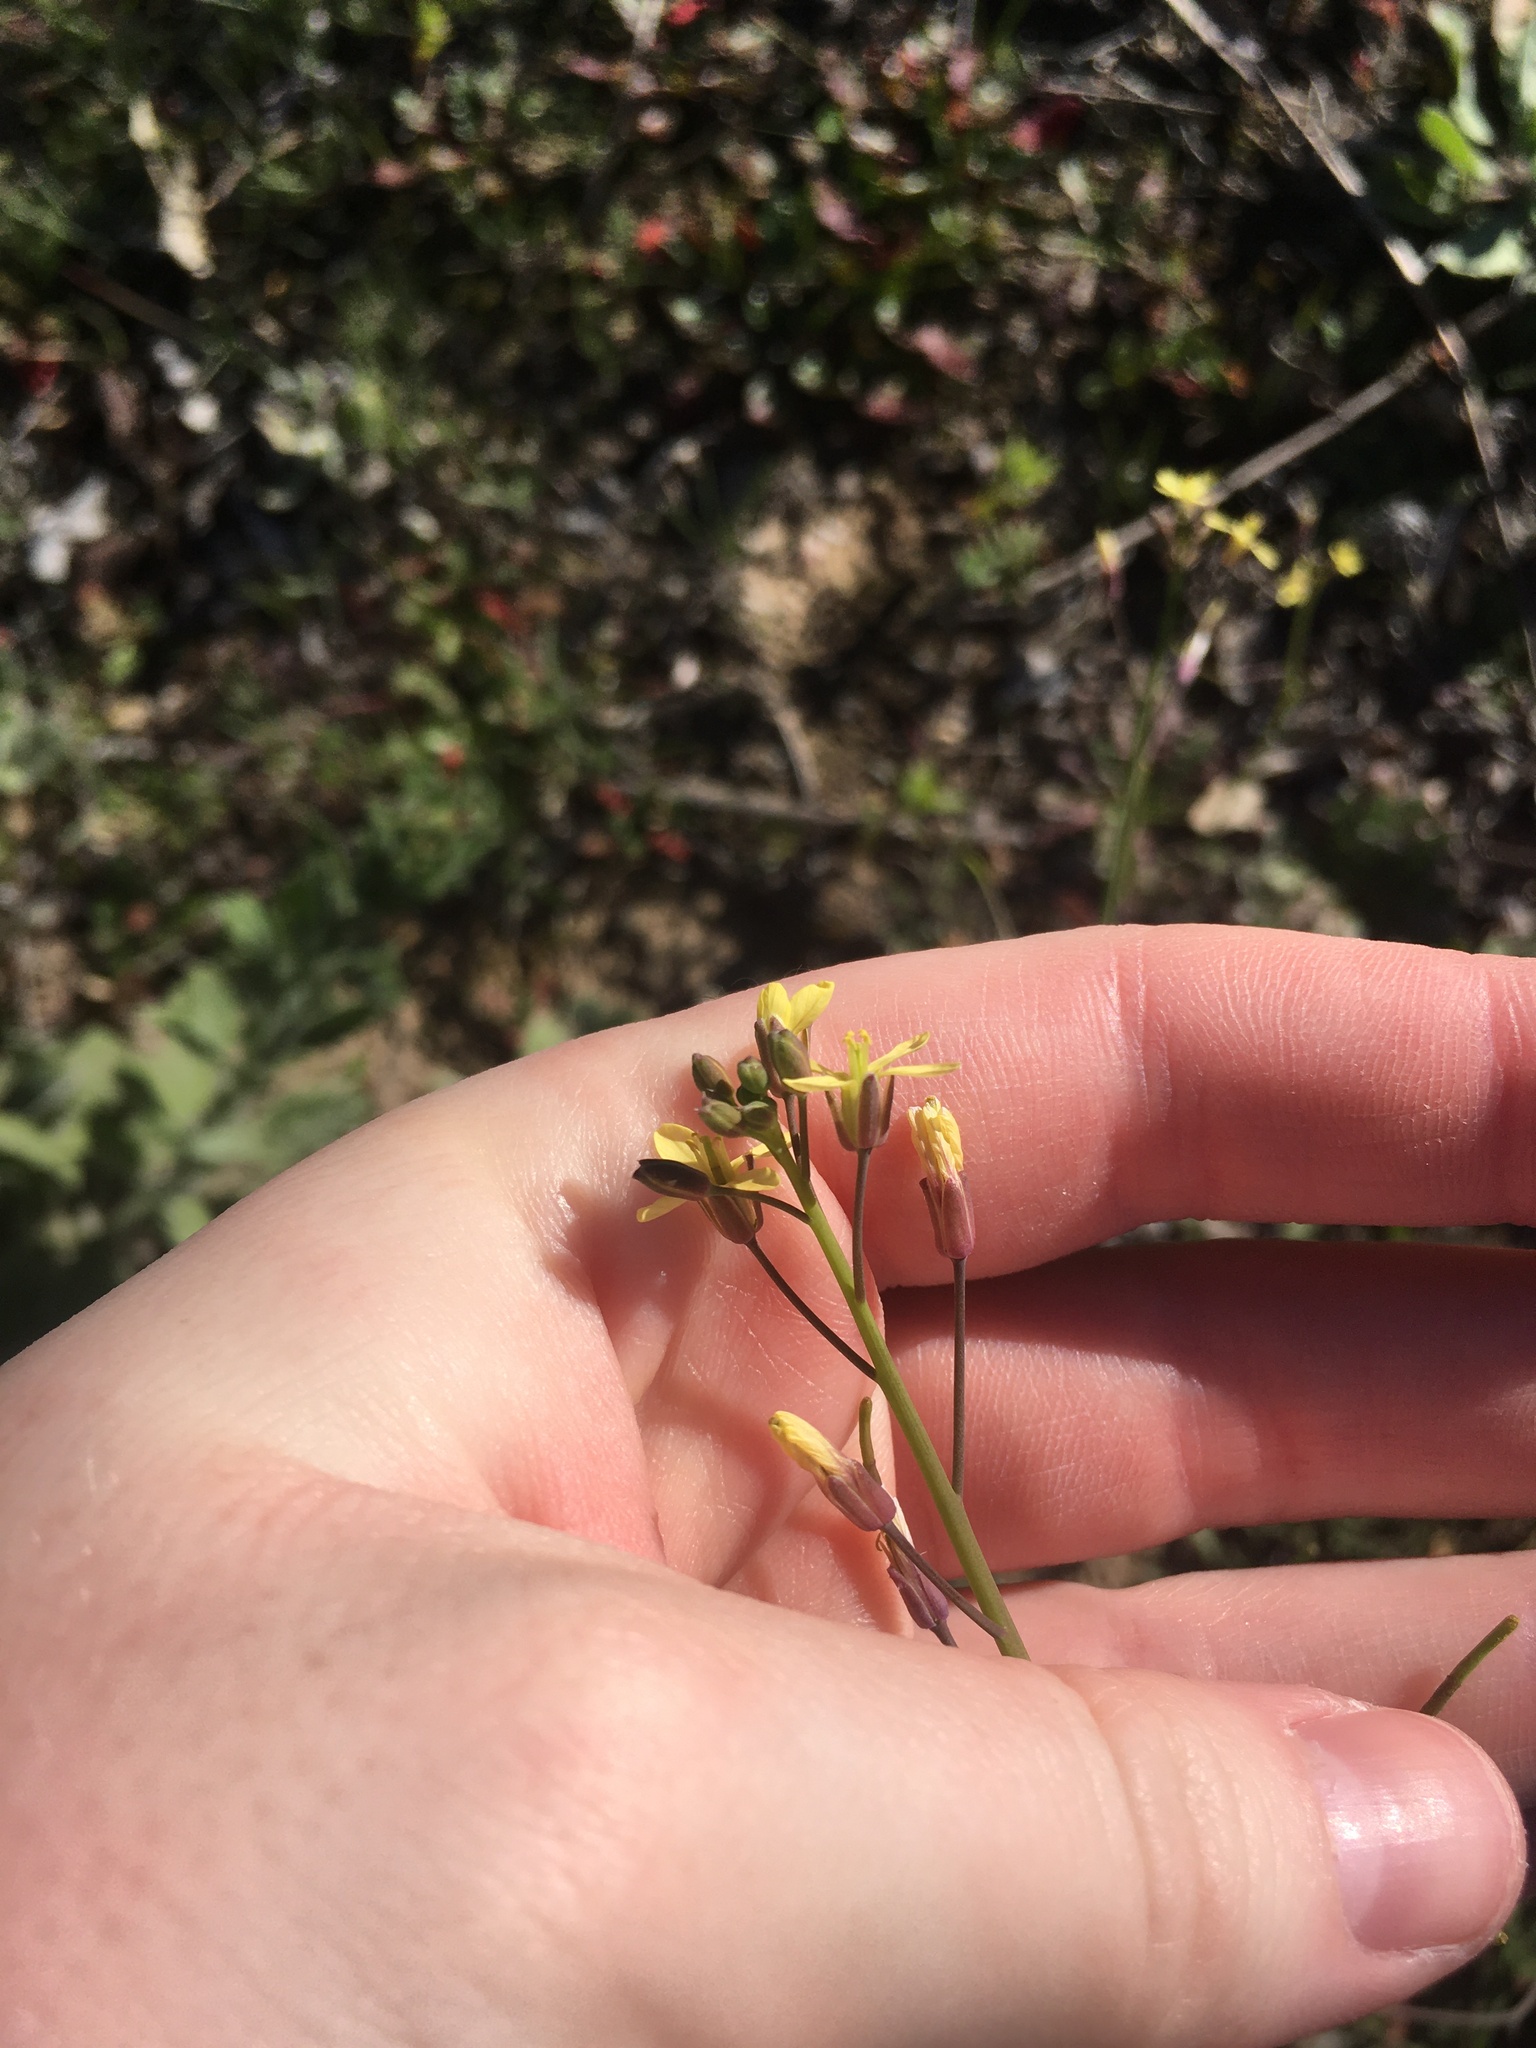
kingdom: Plantae
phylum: Tracheophyta
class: Magnoliopsida
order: Brassicales
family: Brassicaceae
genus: Brassica
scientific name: Brassica tournefortii
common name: Pale cabbage
